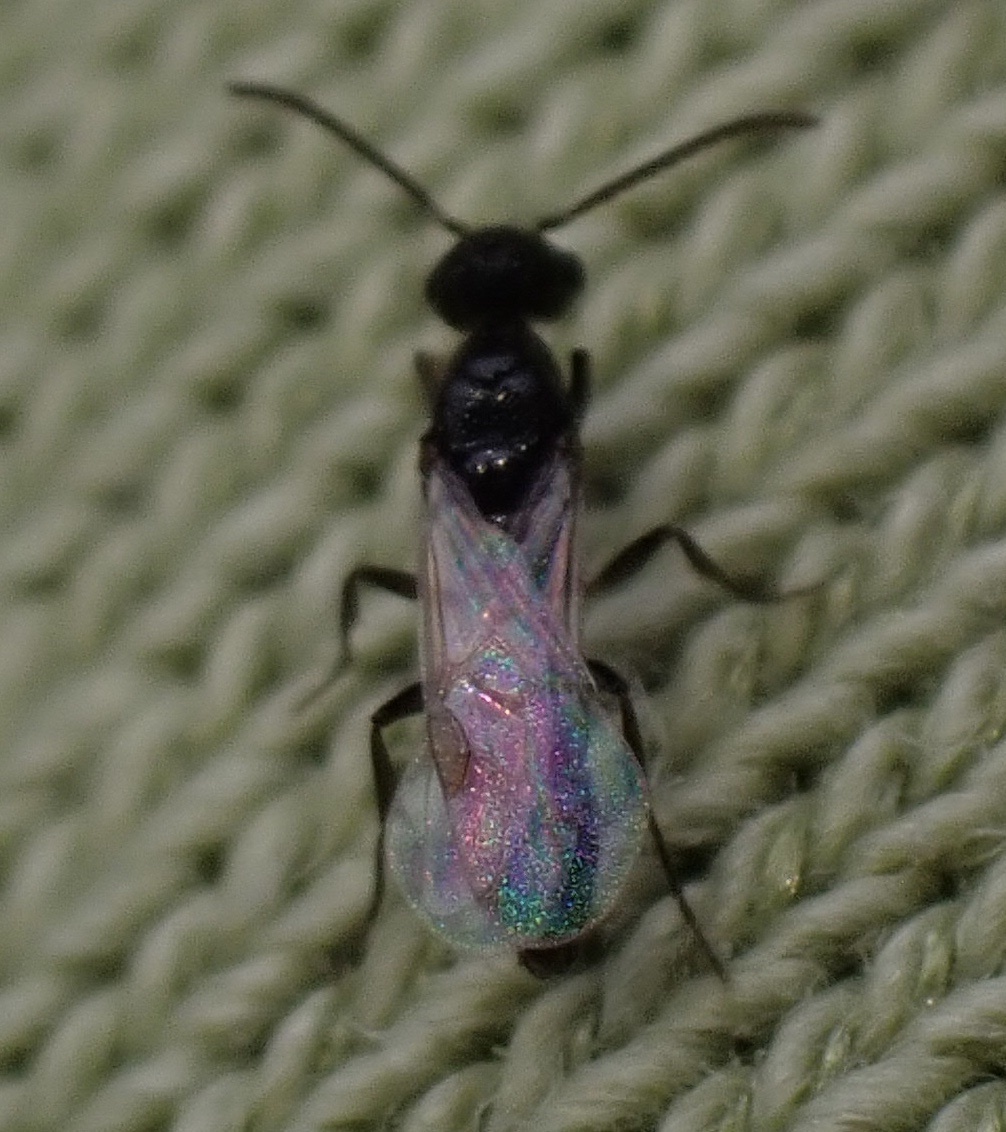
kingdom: Animalia
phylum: Arthropoda
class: Insecta
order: Hymenoptera
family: Formicidae
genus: Amblyopone
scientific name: Amblyopone denticulata
